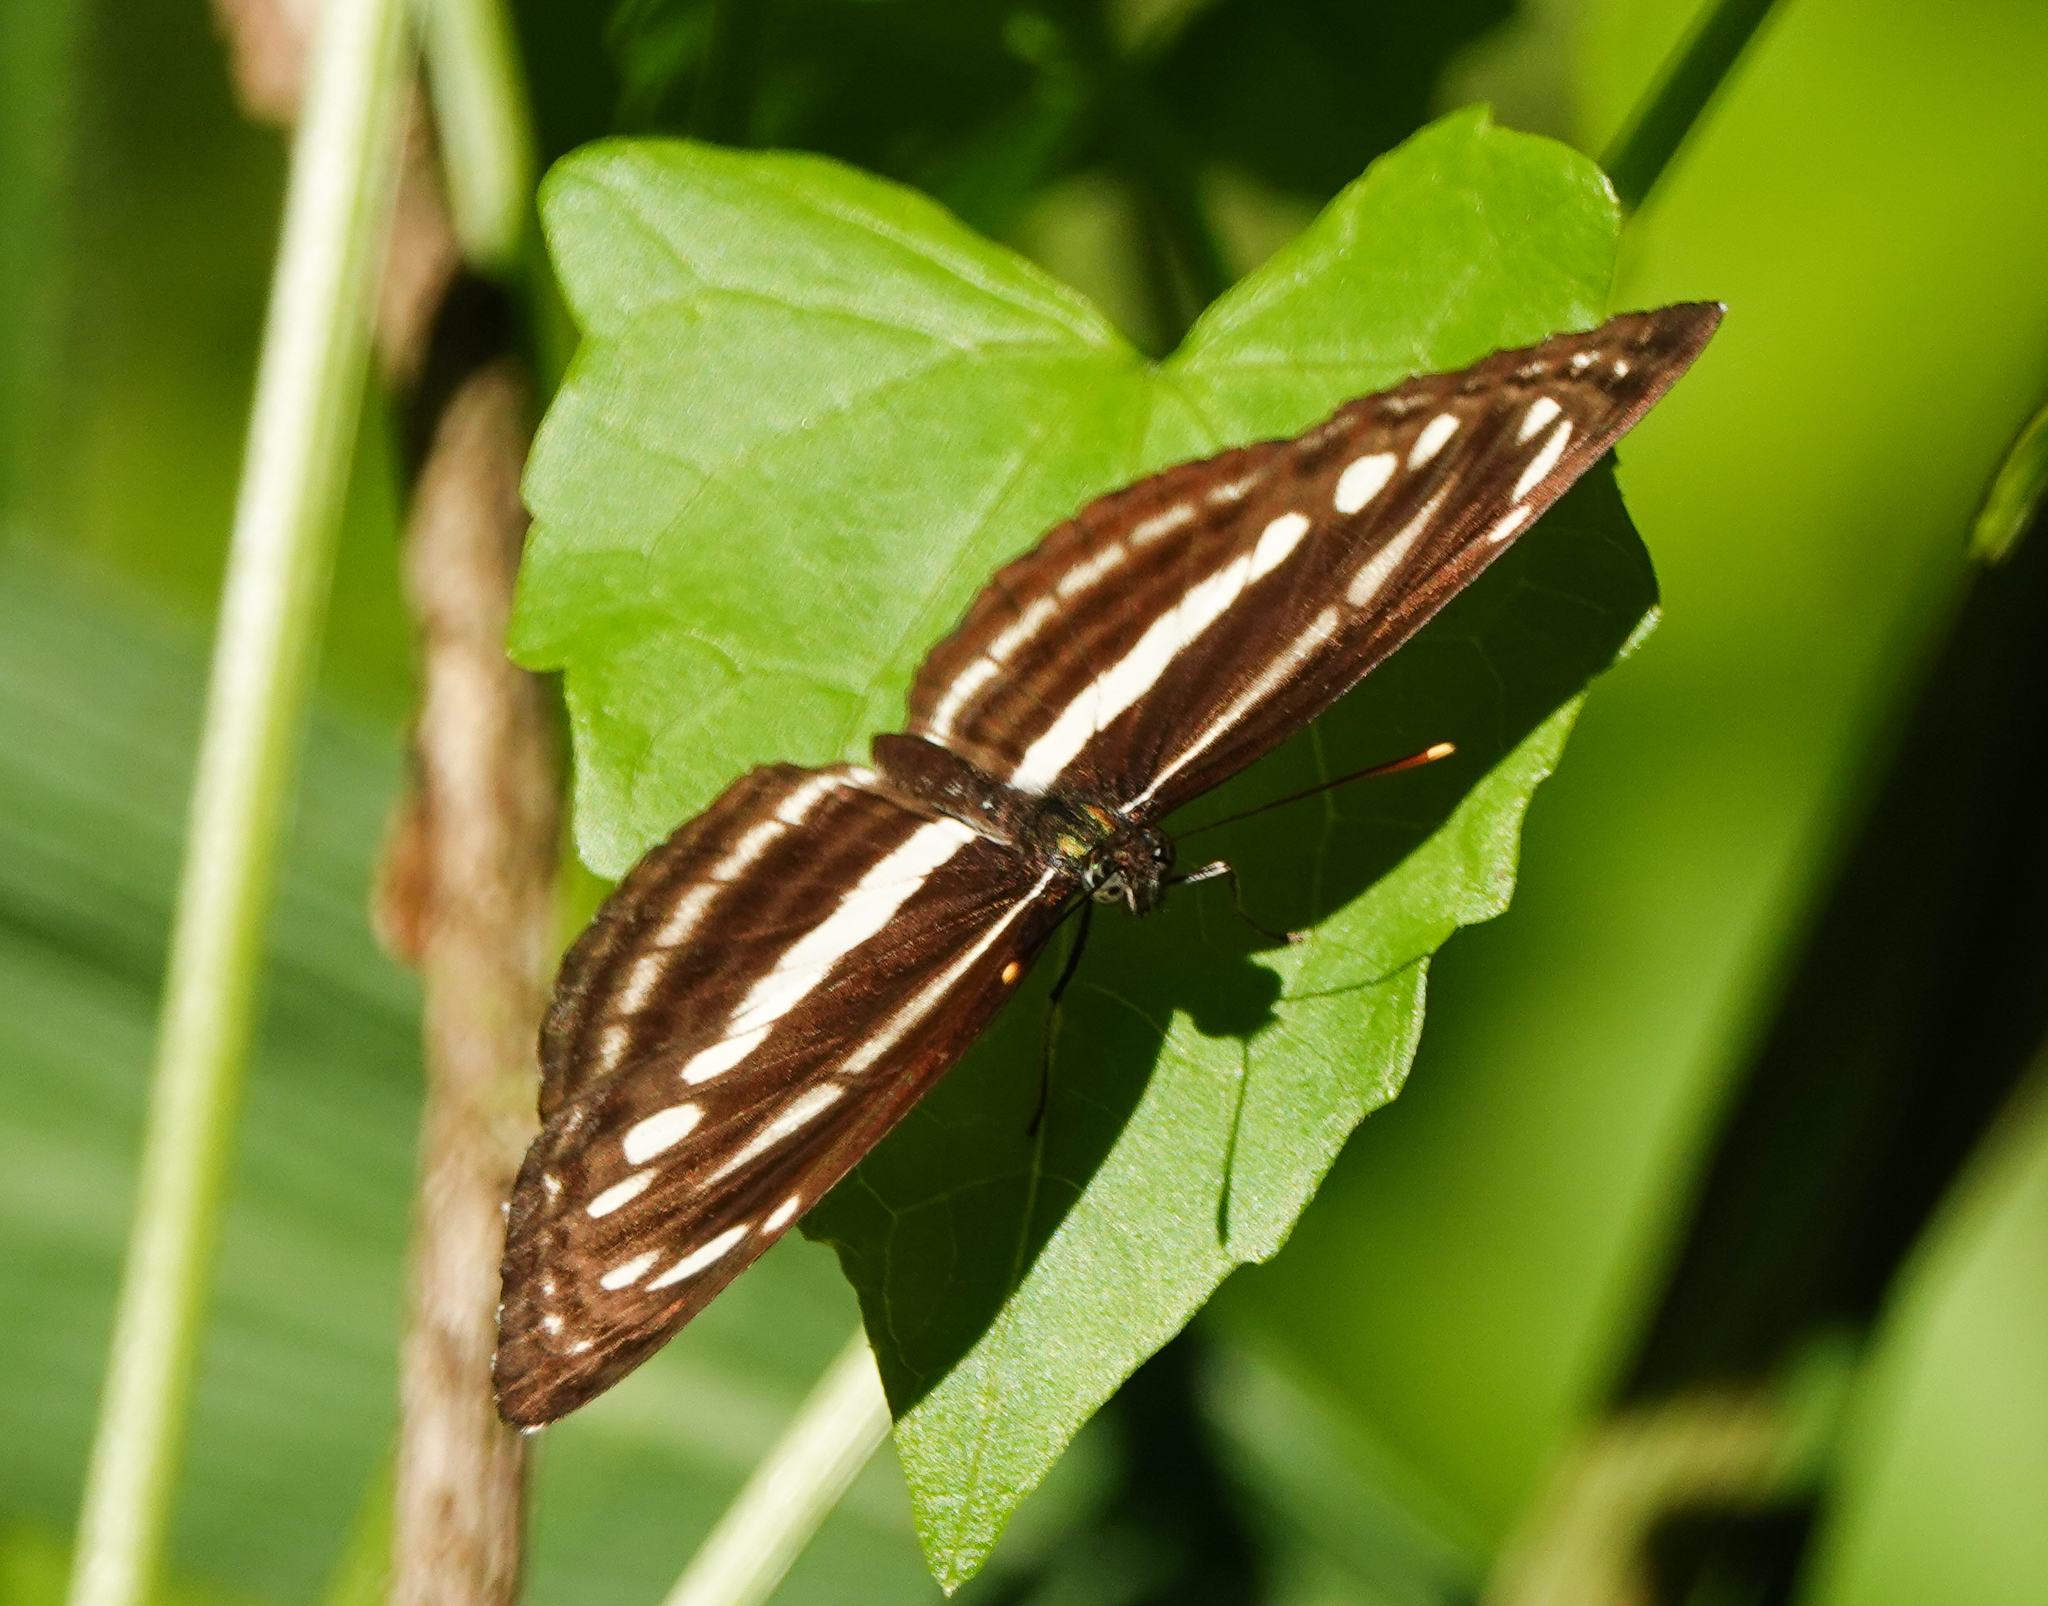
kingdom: Animalia
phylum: Arthropoda
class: Insecta
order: Lepidoptera
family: Nymphalidae
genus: Neptis
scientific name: Neptis clinia
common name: Southern sullied sailer
